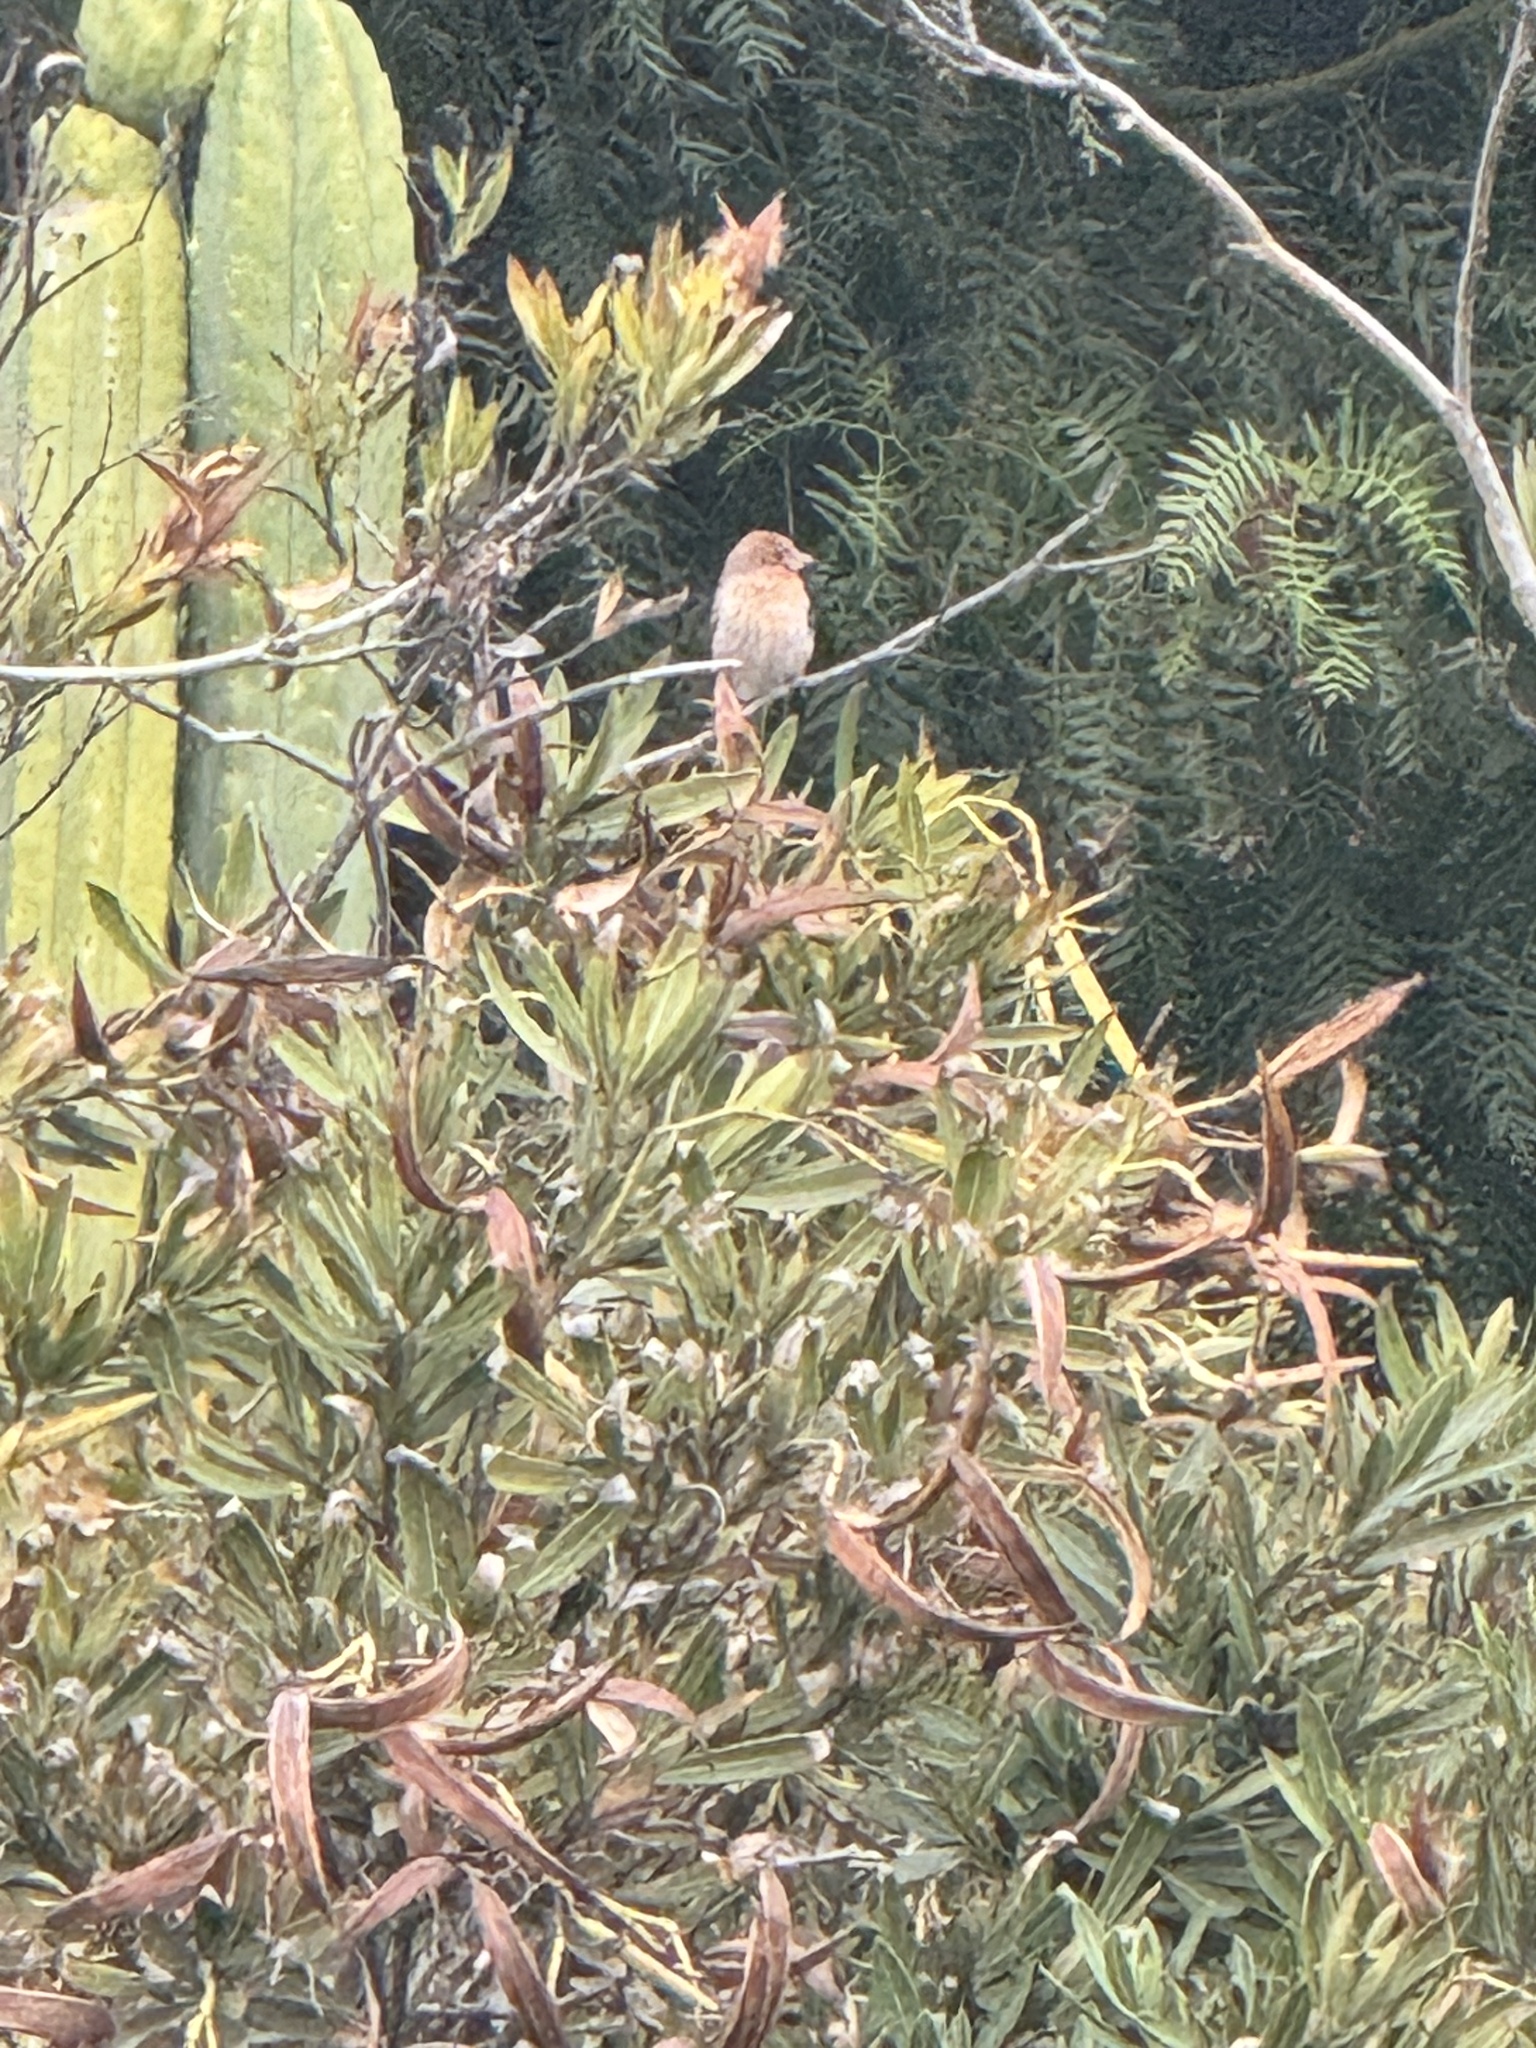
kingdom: Animalia
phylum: Chordata
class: Aves
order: Passeriformes
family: Fringillidae
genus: Haemorhous
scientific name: Haemorhous mexicanus
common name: House finch
